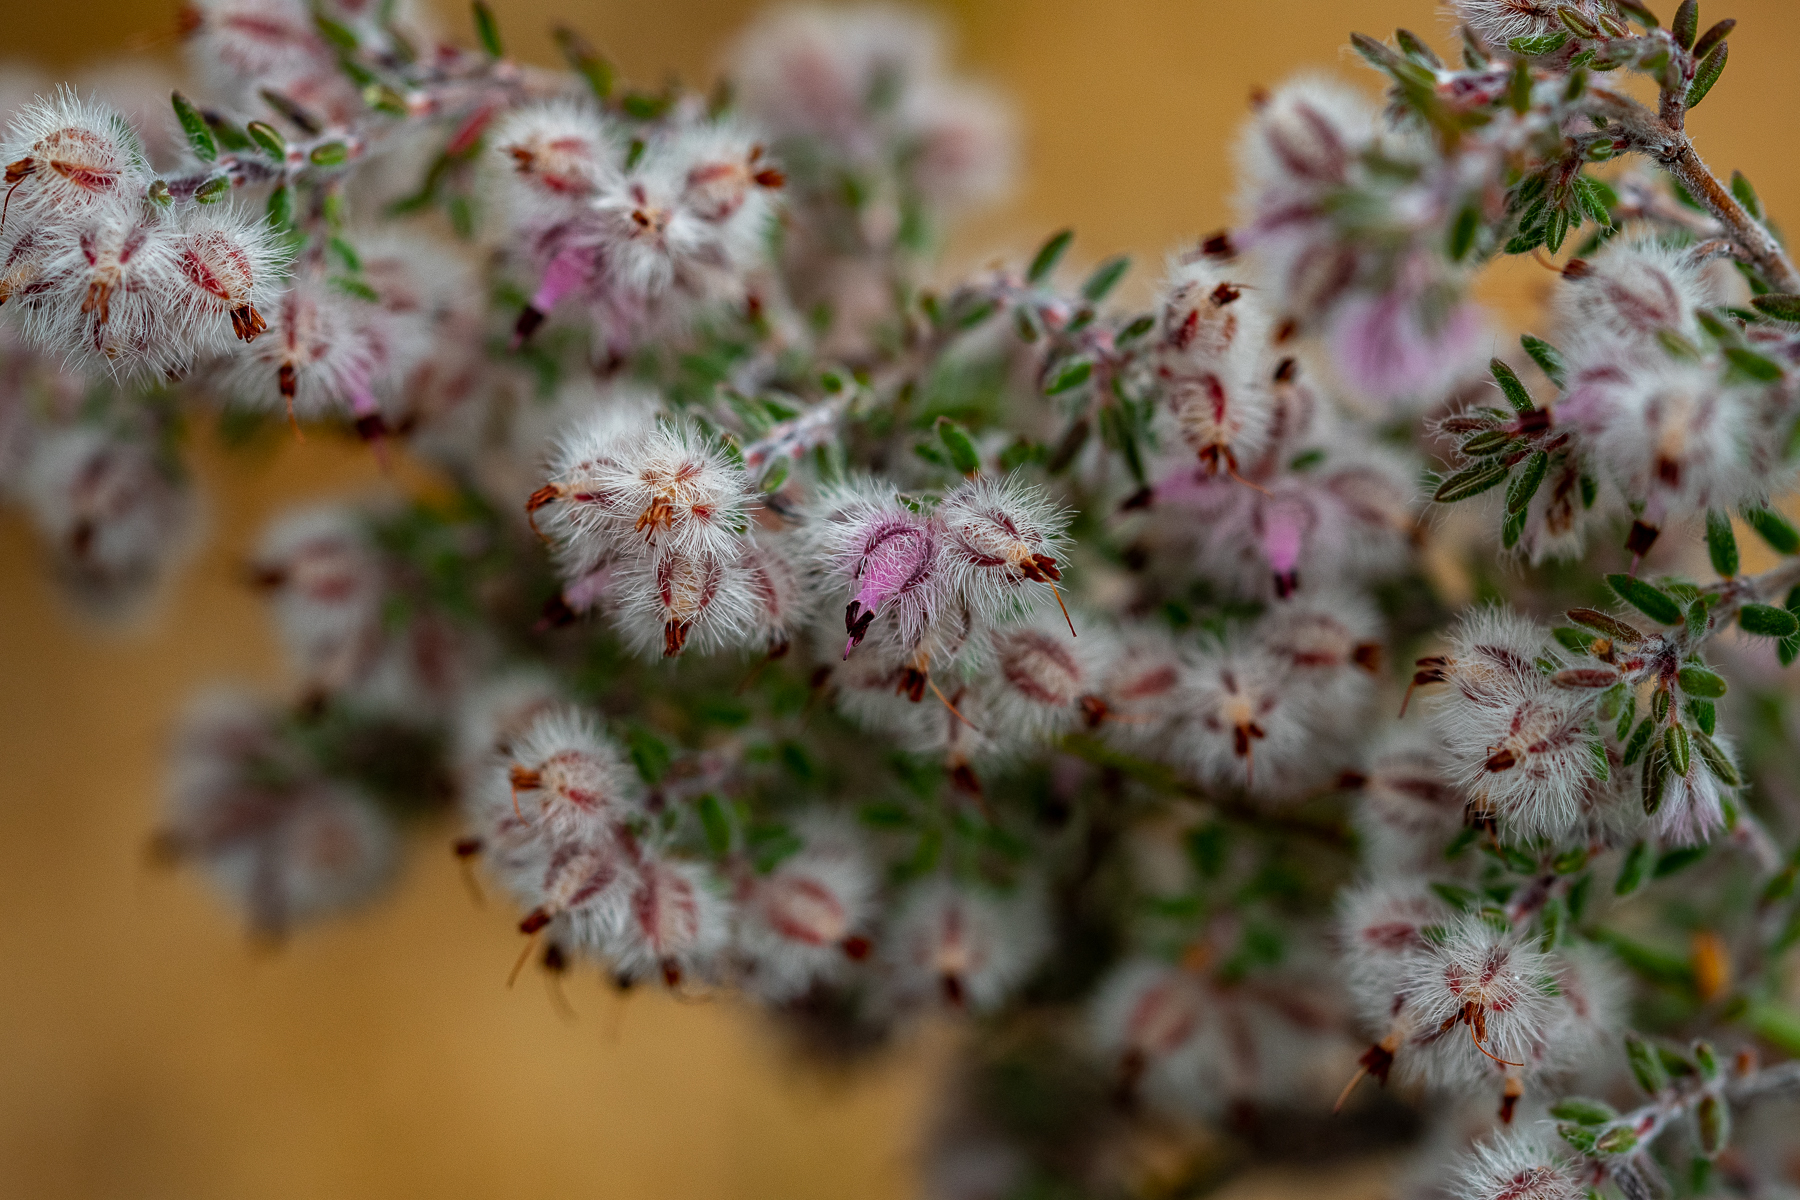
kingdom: Plantae
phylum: Tracheophyta
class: Magnoliopsida
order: Ericales
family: Ericaceae
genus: Erica
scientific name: Erica pilosiflora
